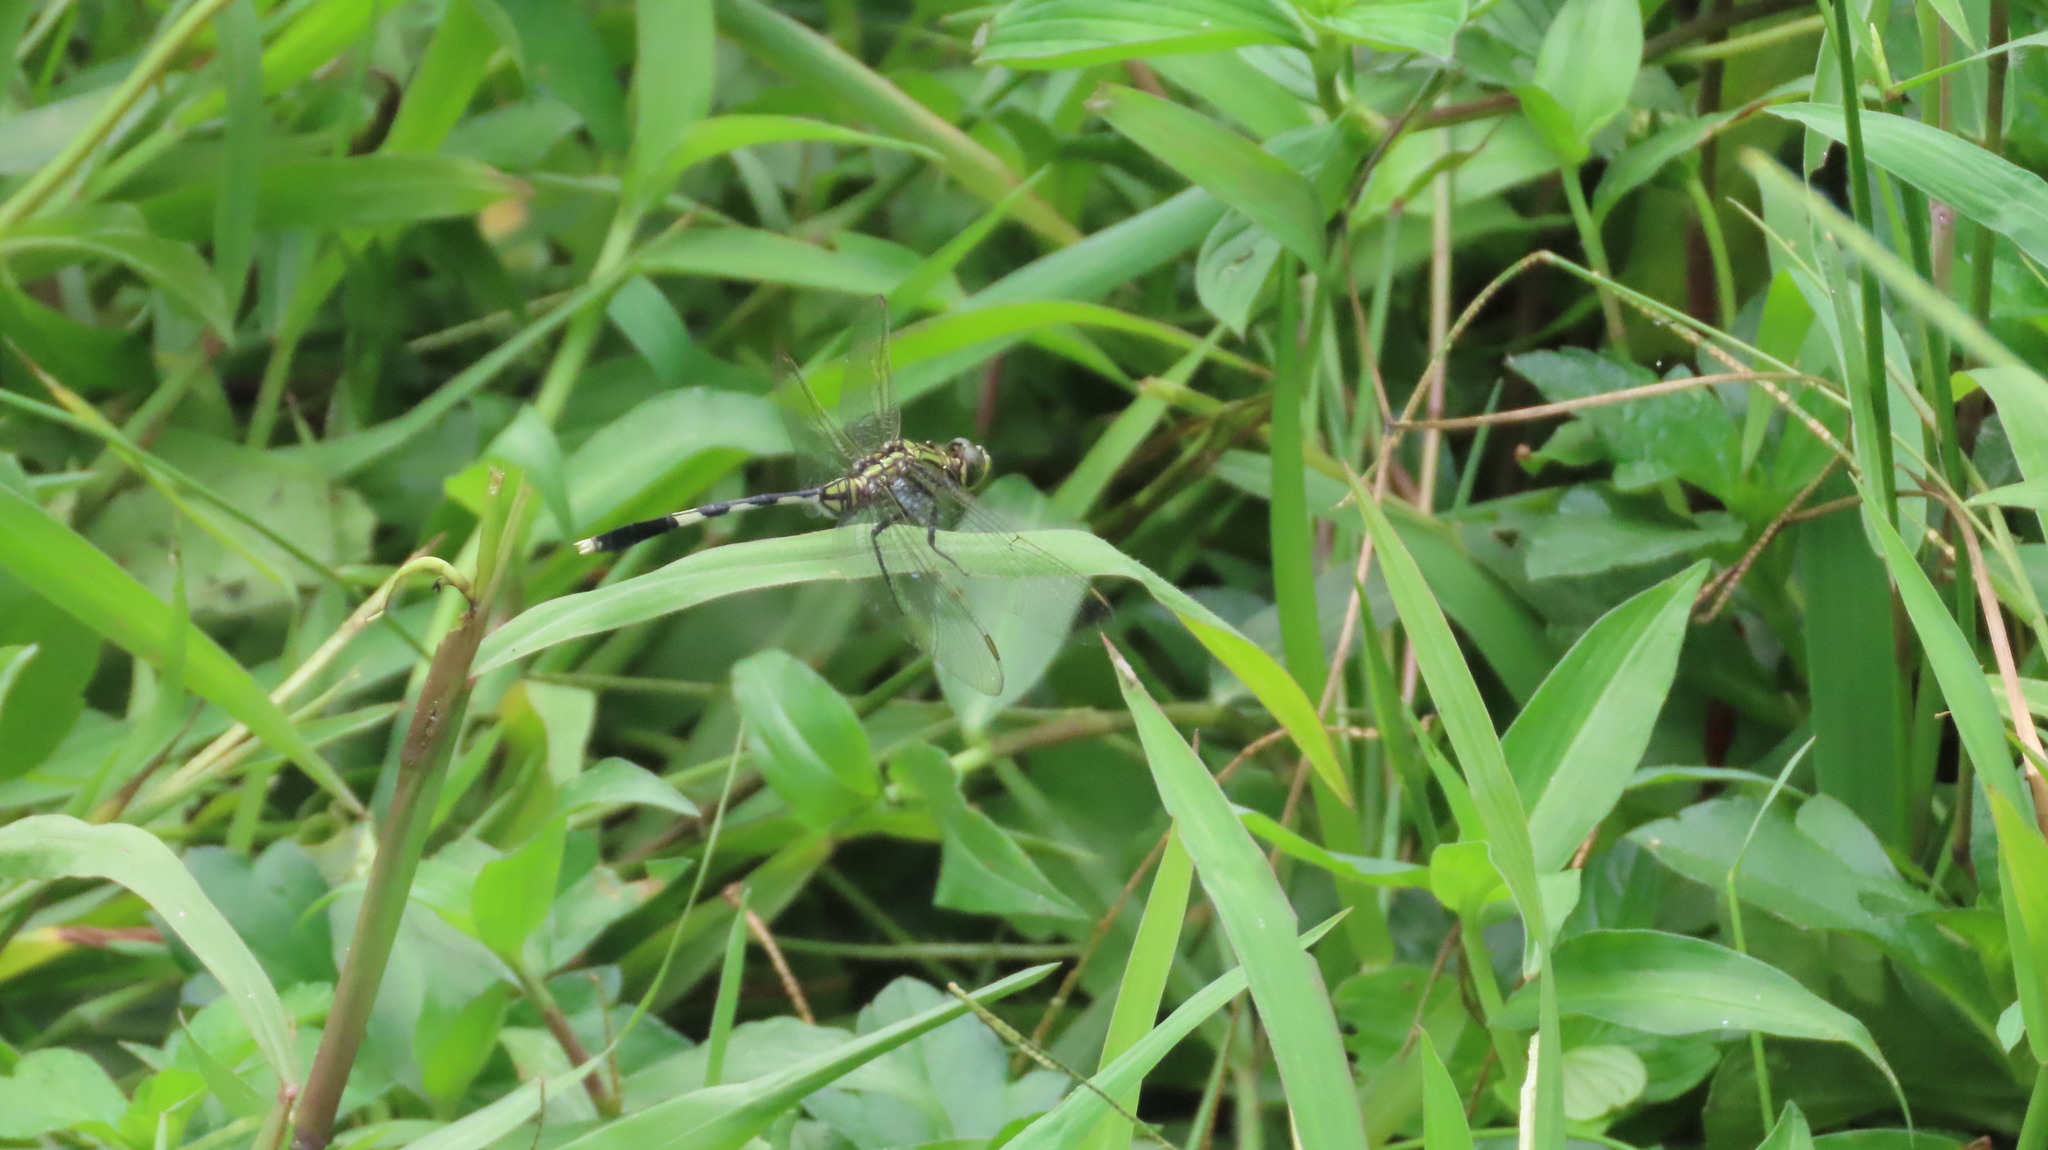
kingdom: Animalia
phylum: Arthropoda
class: Insecta
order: Odonata
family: Libellulidae
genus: Orthetrum
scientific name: Orthetrum sabina
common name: Slender skimmer
